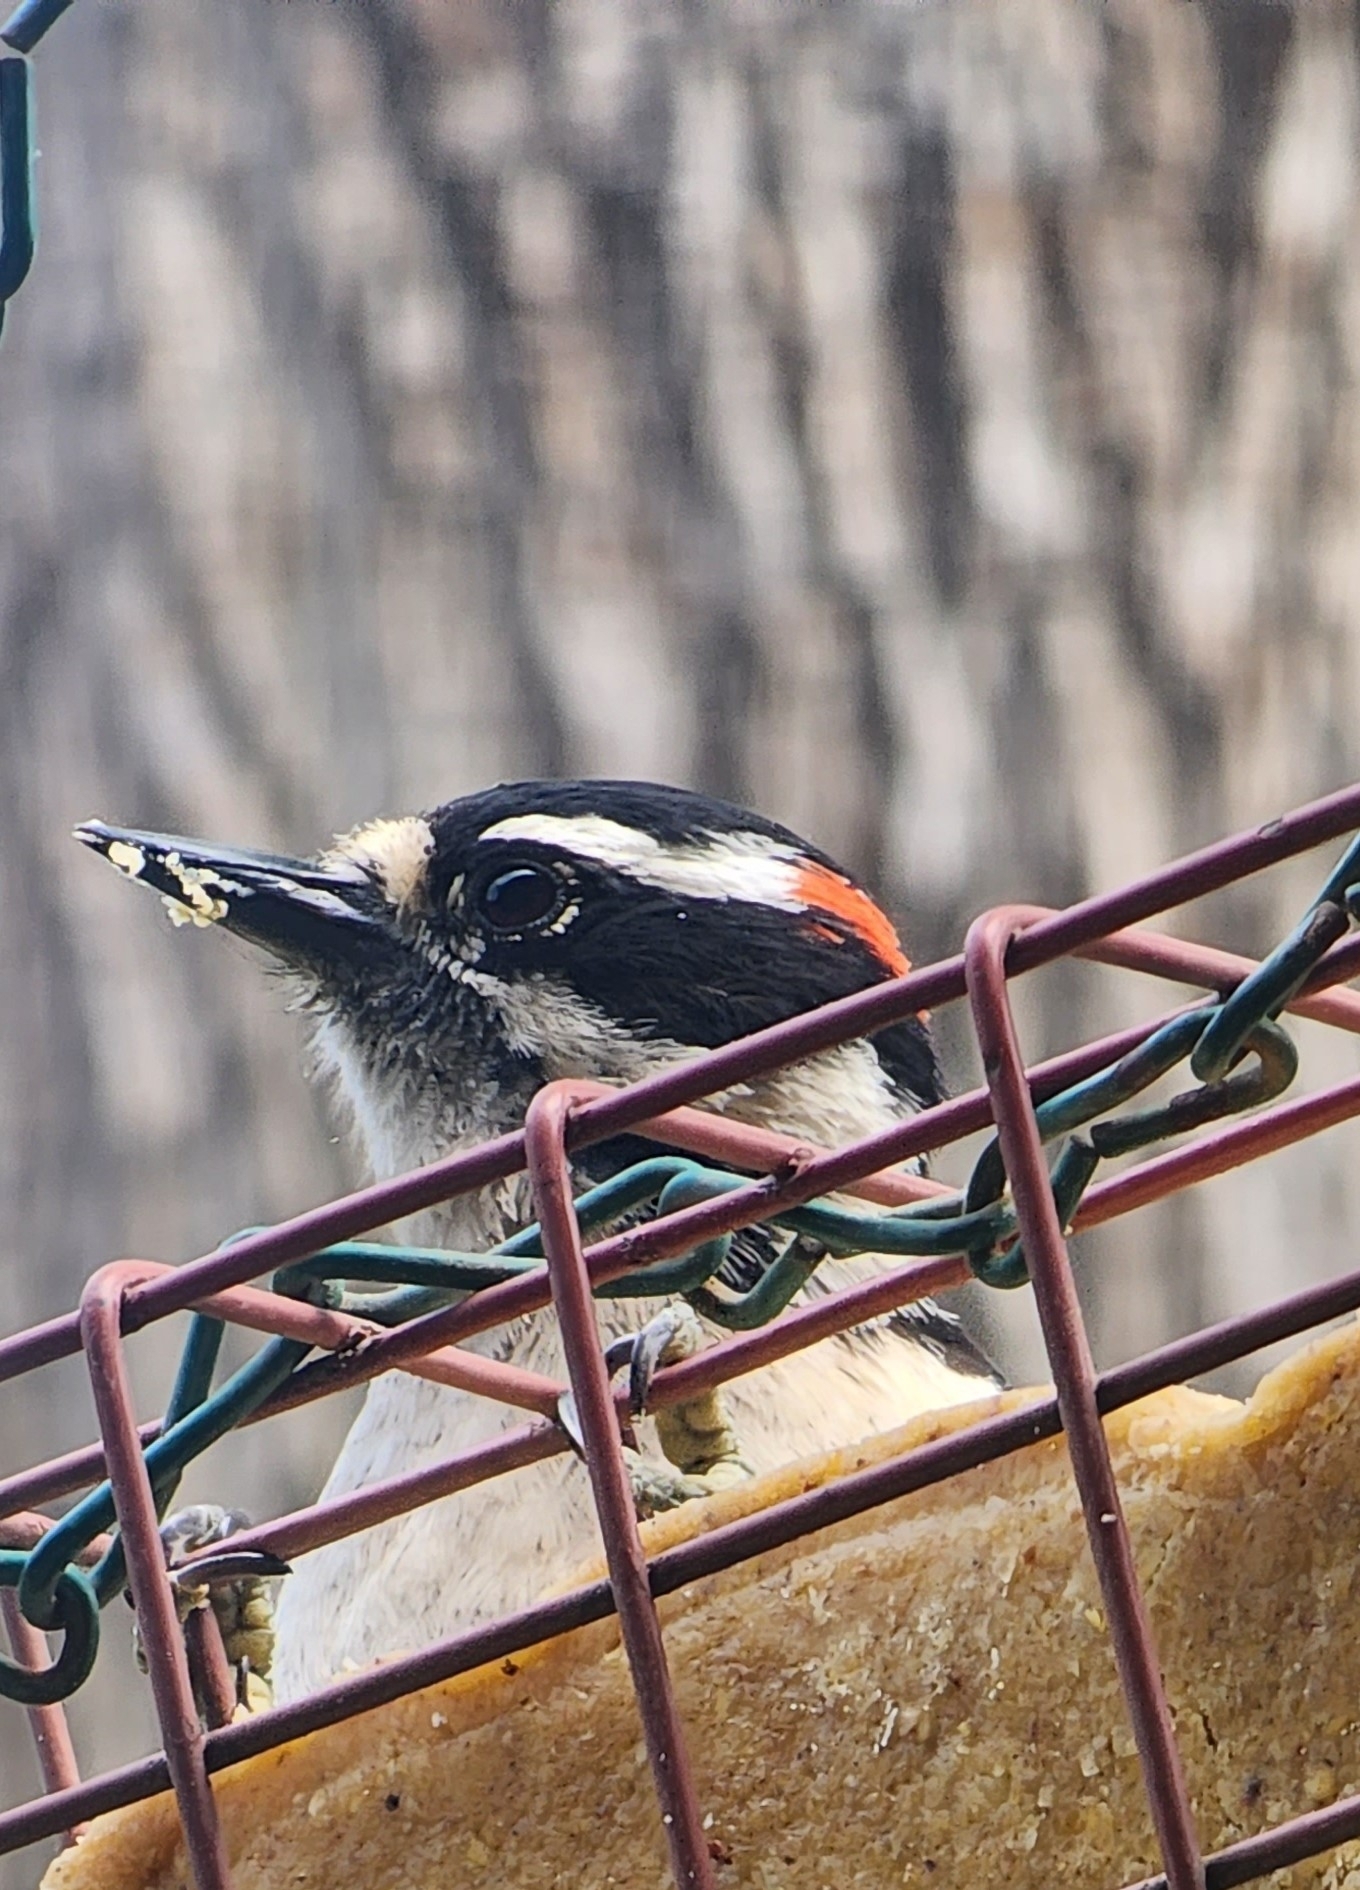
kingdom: Animalia
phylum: Chordata
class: Aves
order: Piciformes
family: Picidae
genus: Dryobates
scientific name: Dryobates pubescens
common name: Downy woodpecker
